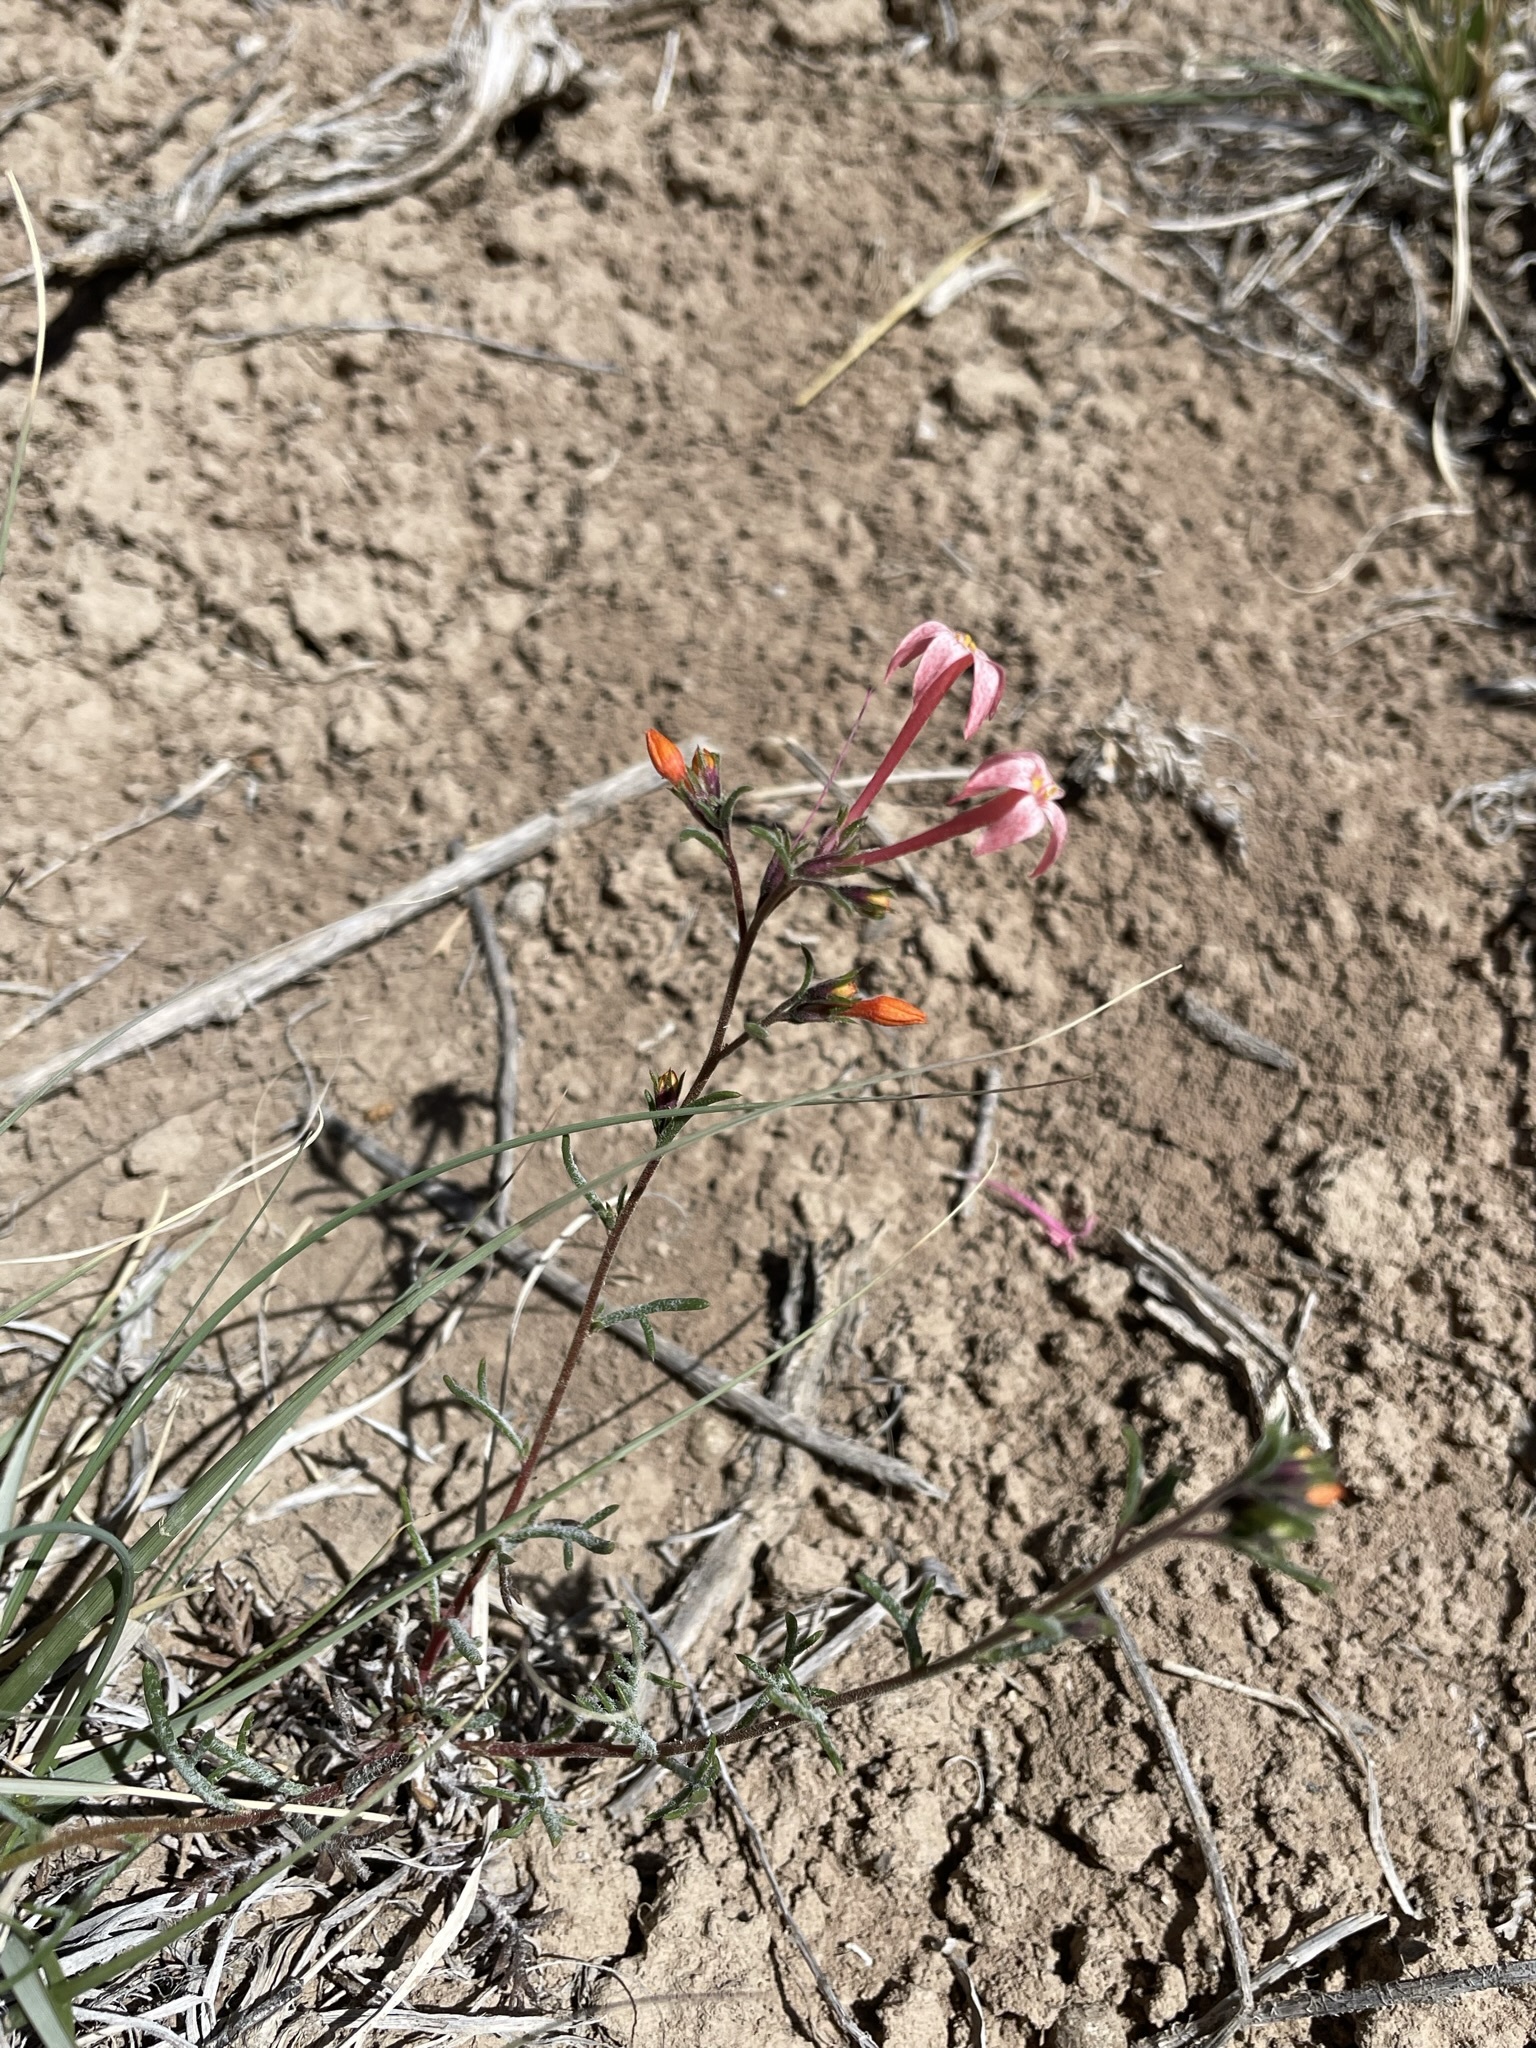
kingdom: Plantae
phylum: Tracheophyta
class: Magnoliopsida
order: Ericales
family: Polemoniaceae
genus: Ipomopsis
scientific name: Ipomopsis tenuituba
